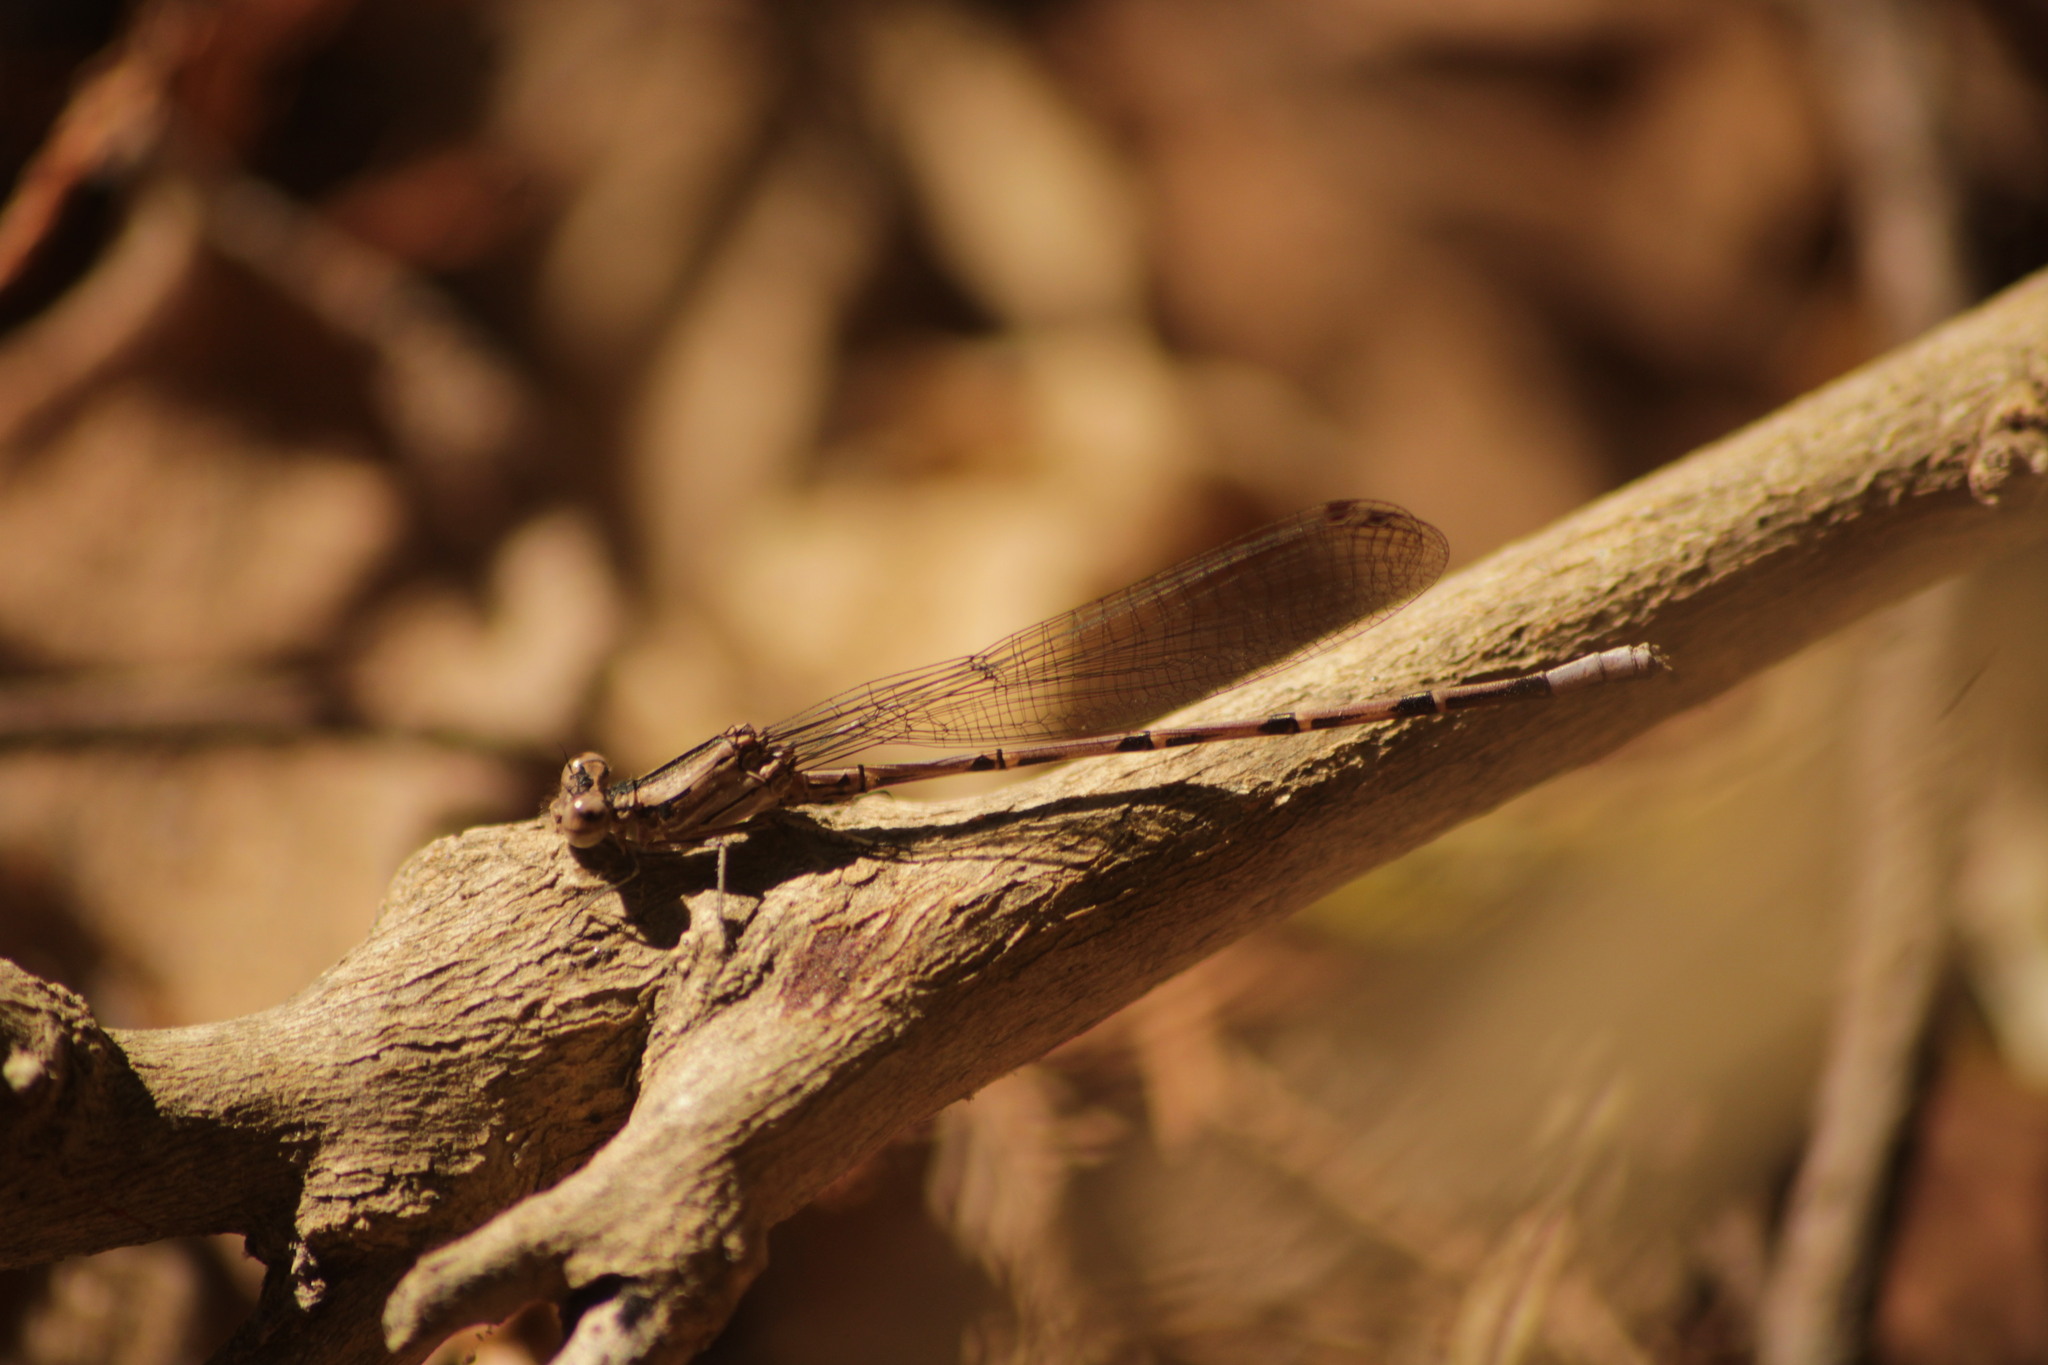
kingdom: Animalia
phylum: Arthropoda
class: Insecta
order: Odonata
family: Coenagrionidae
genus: Argia
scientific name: Argia extranea
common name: Spine-tipped dancer
